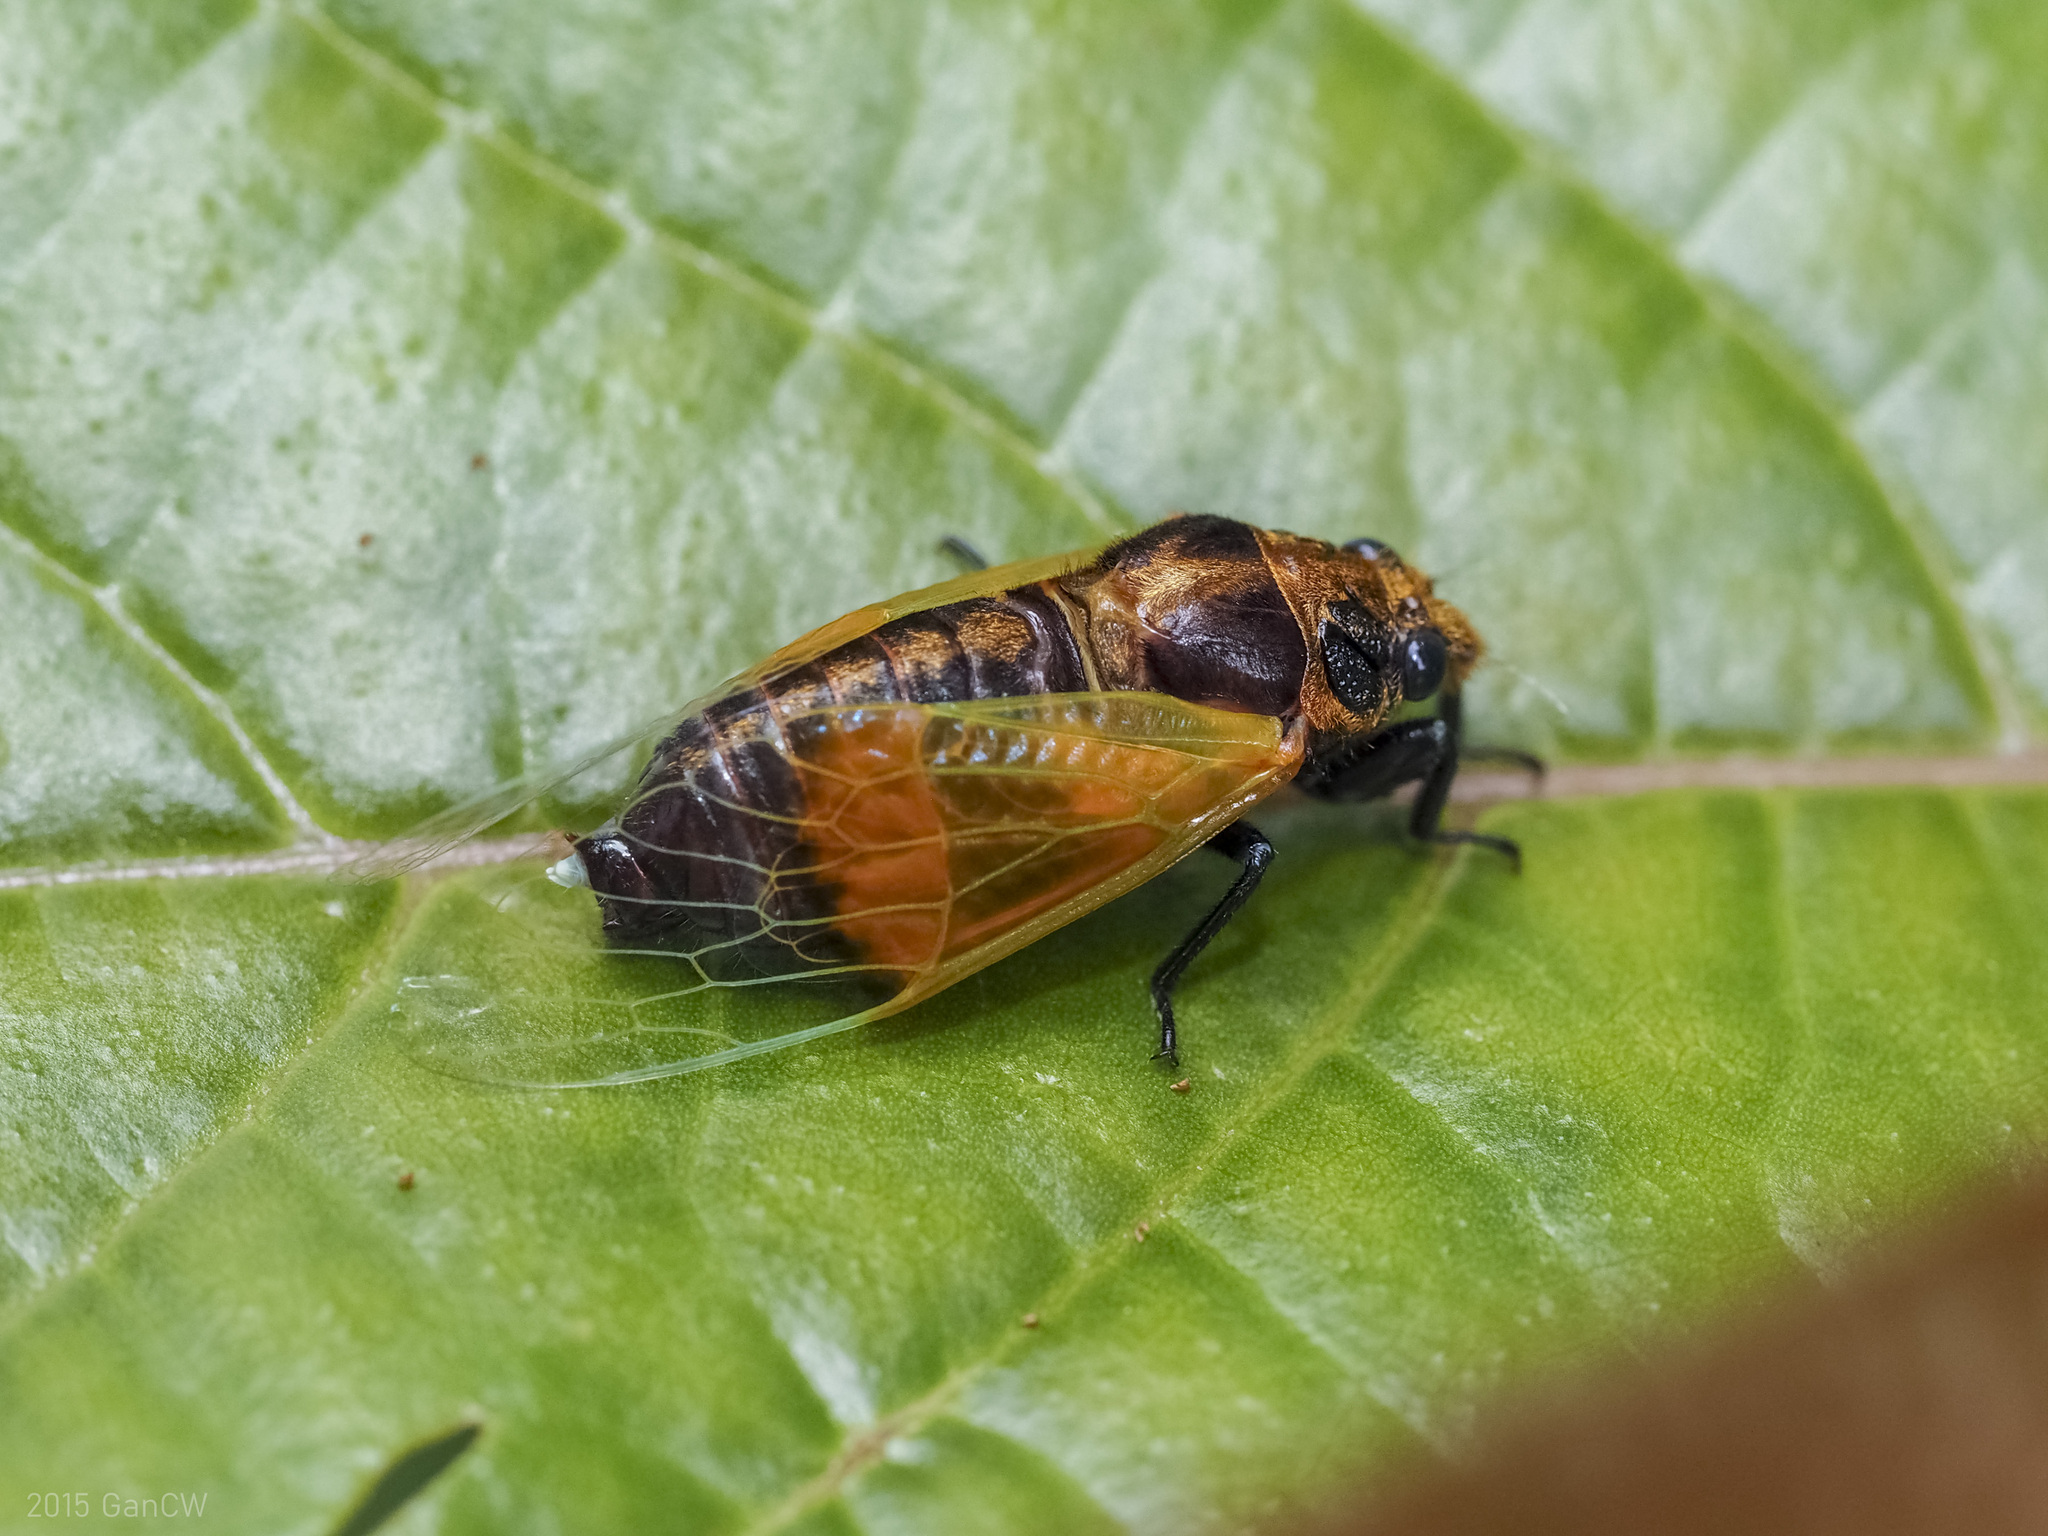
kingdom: Animalia
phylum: Arthropoda
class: Insecta
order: Hemiptera
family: Cicadidae
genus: Mogannia
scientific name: Mogannia saucia
